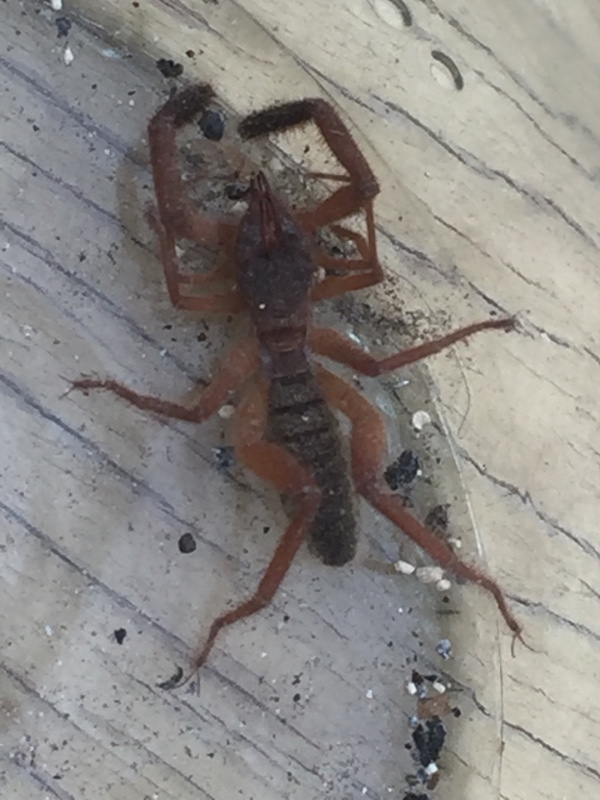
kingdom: Animalia
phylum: Arthropoda
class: Arachnida
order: Solifugae
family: Daesiidae
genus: Gluvia
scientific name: Gluvia dorsalis
